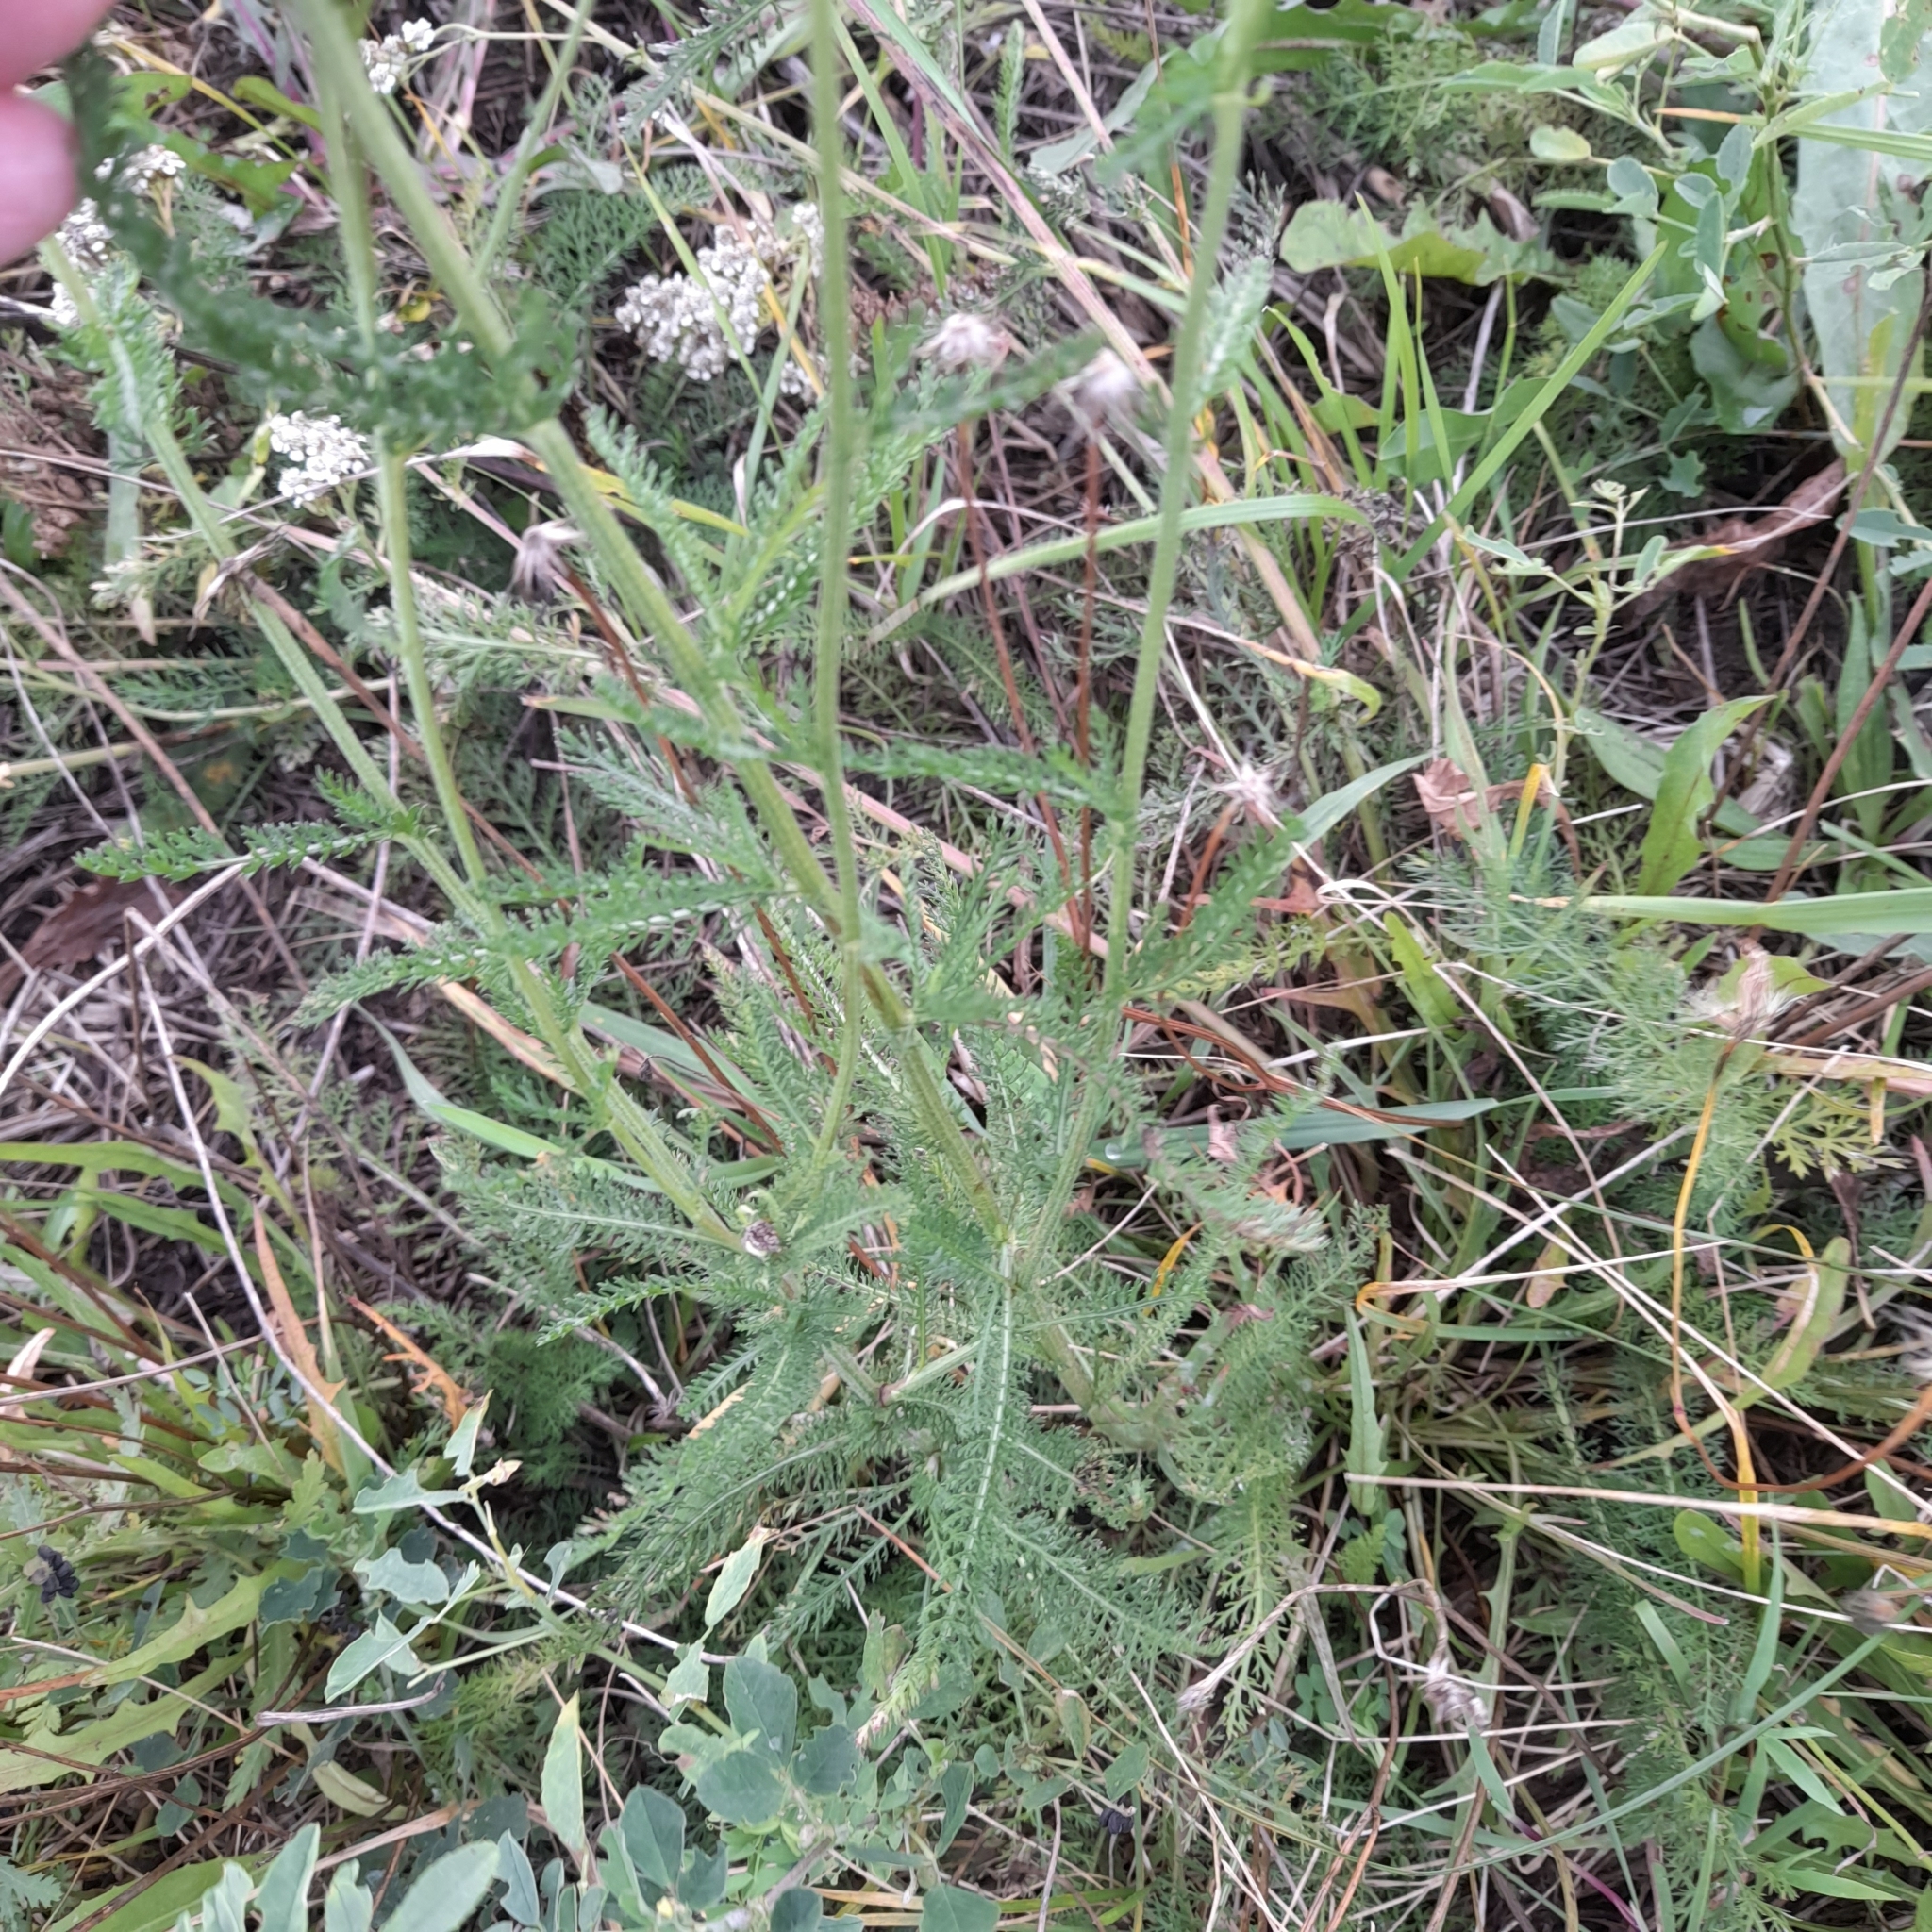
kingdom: Plantae
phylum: Tracheophyta
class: Magnoliopsida
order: Asterales
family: Asteraceae
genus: Achillea
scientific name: Achillea millefolium
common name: Yarrow
